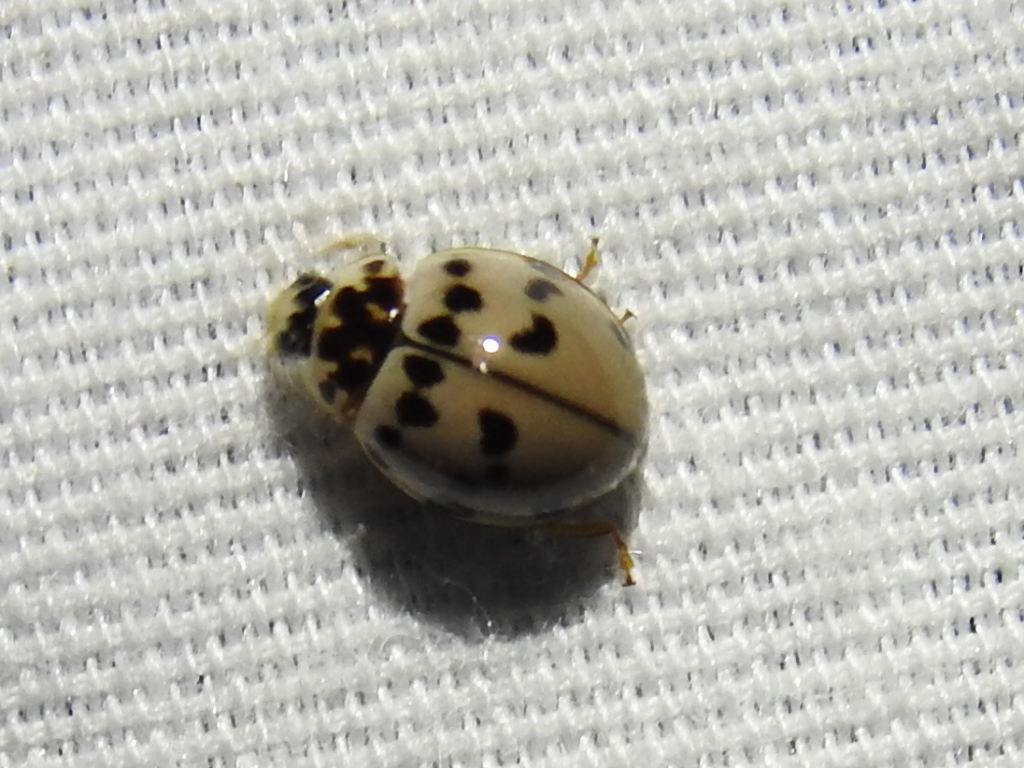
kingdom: Animalia
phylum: Arthropoda
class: Insecta
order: Coleoptera
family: Coccinellidae
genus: Olla
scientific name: Olla v-nigrum
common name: Ashy gray lady beetle
